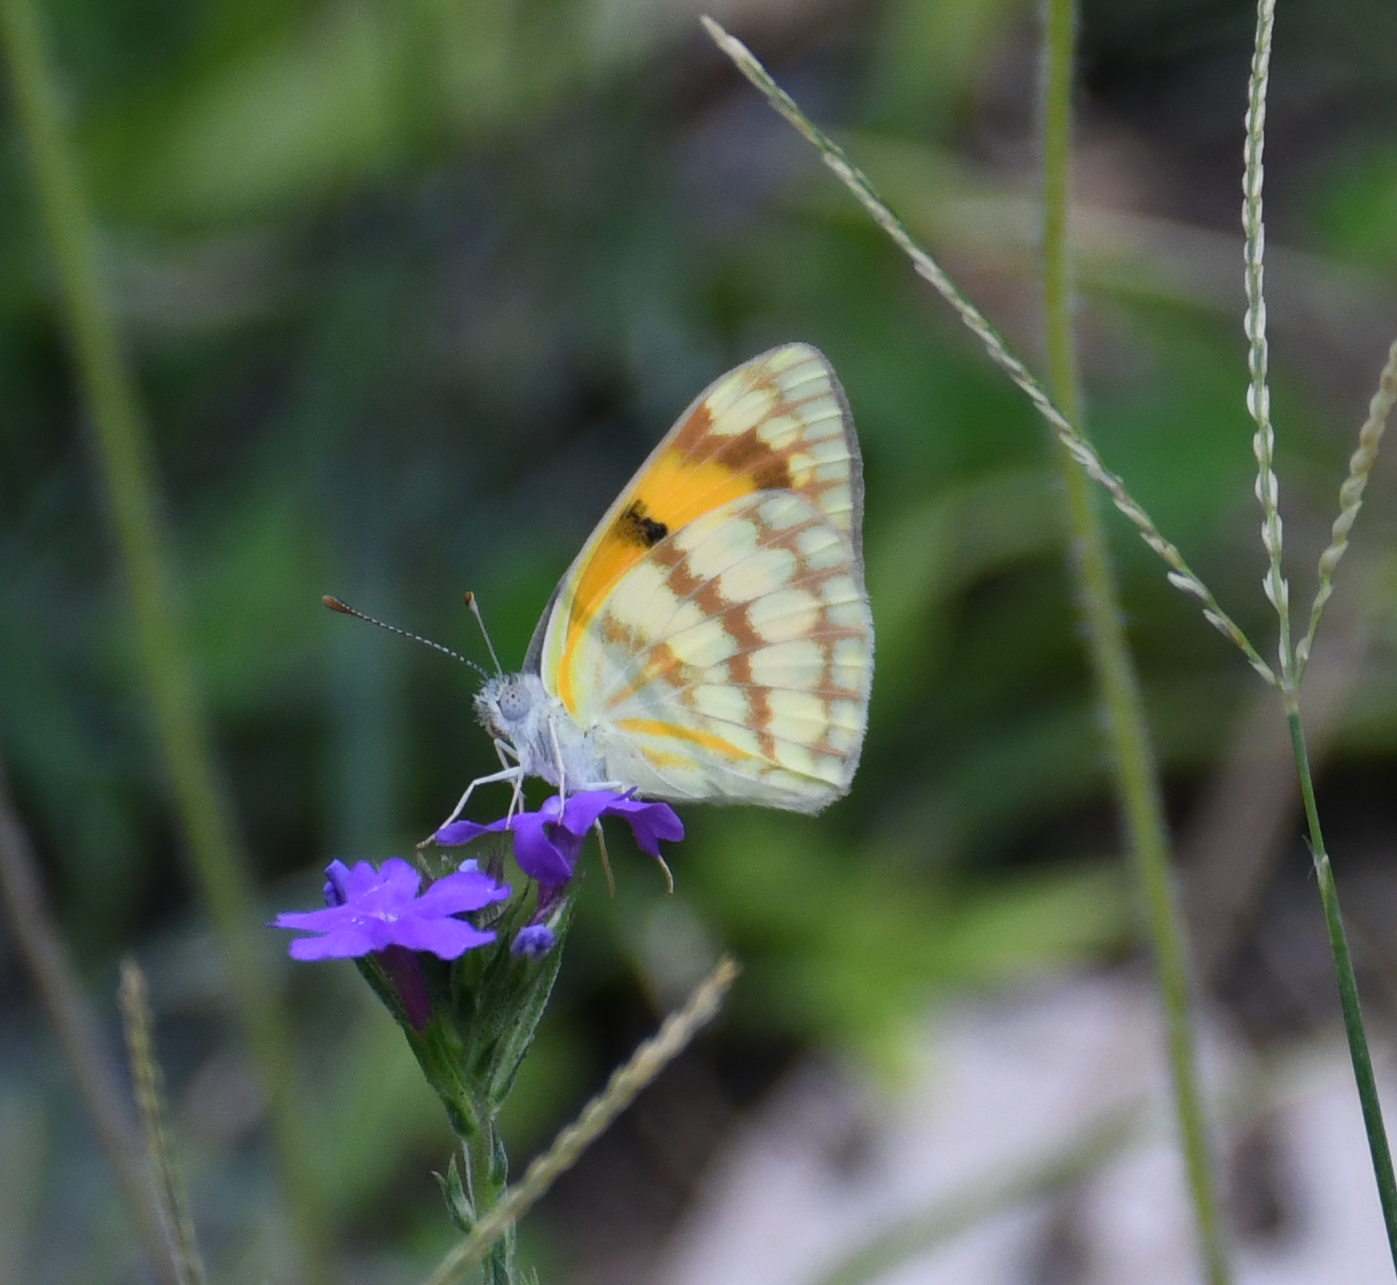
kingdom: Animalia
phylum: Arthropoda
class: Insecta
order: Lepidoptera
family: Pieridae
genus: Colotis
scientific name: Colotis vesta
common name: Veined golden arab
